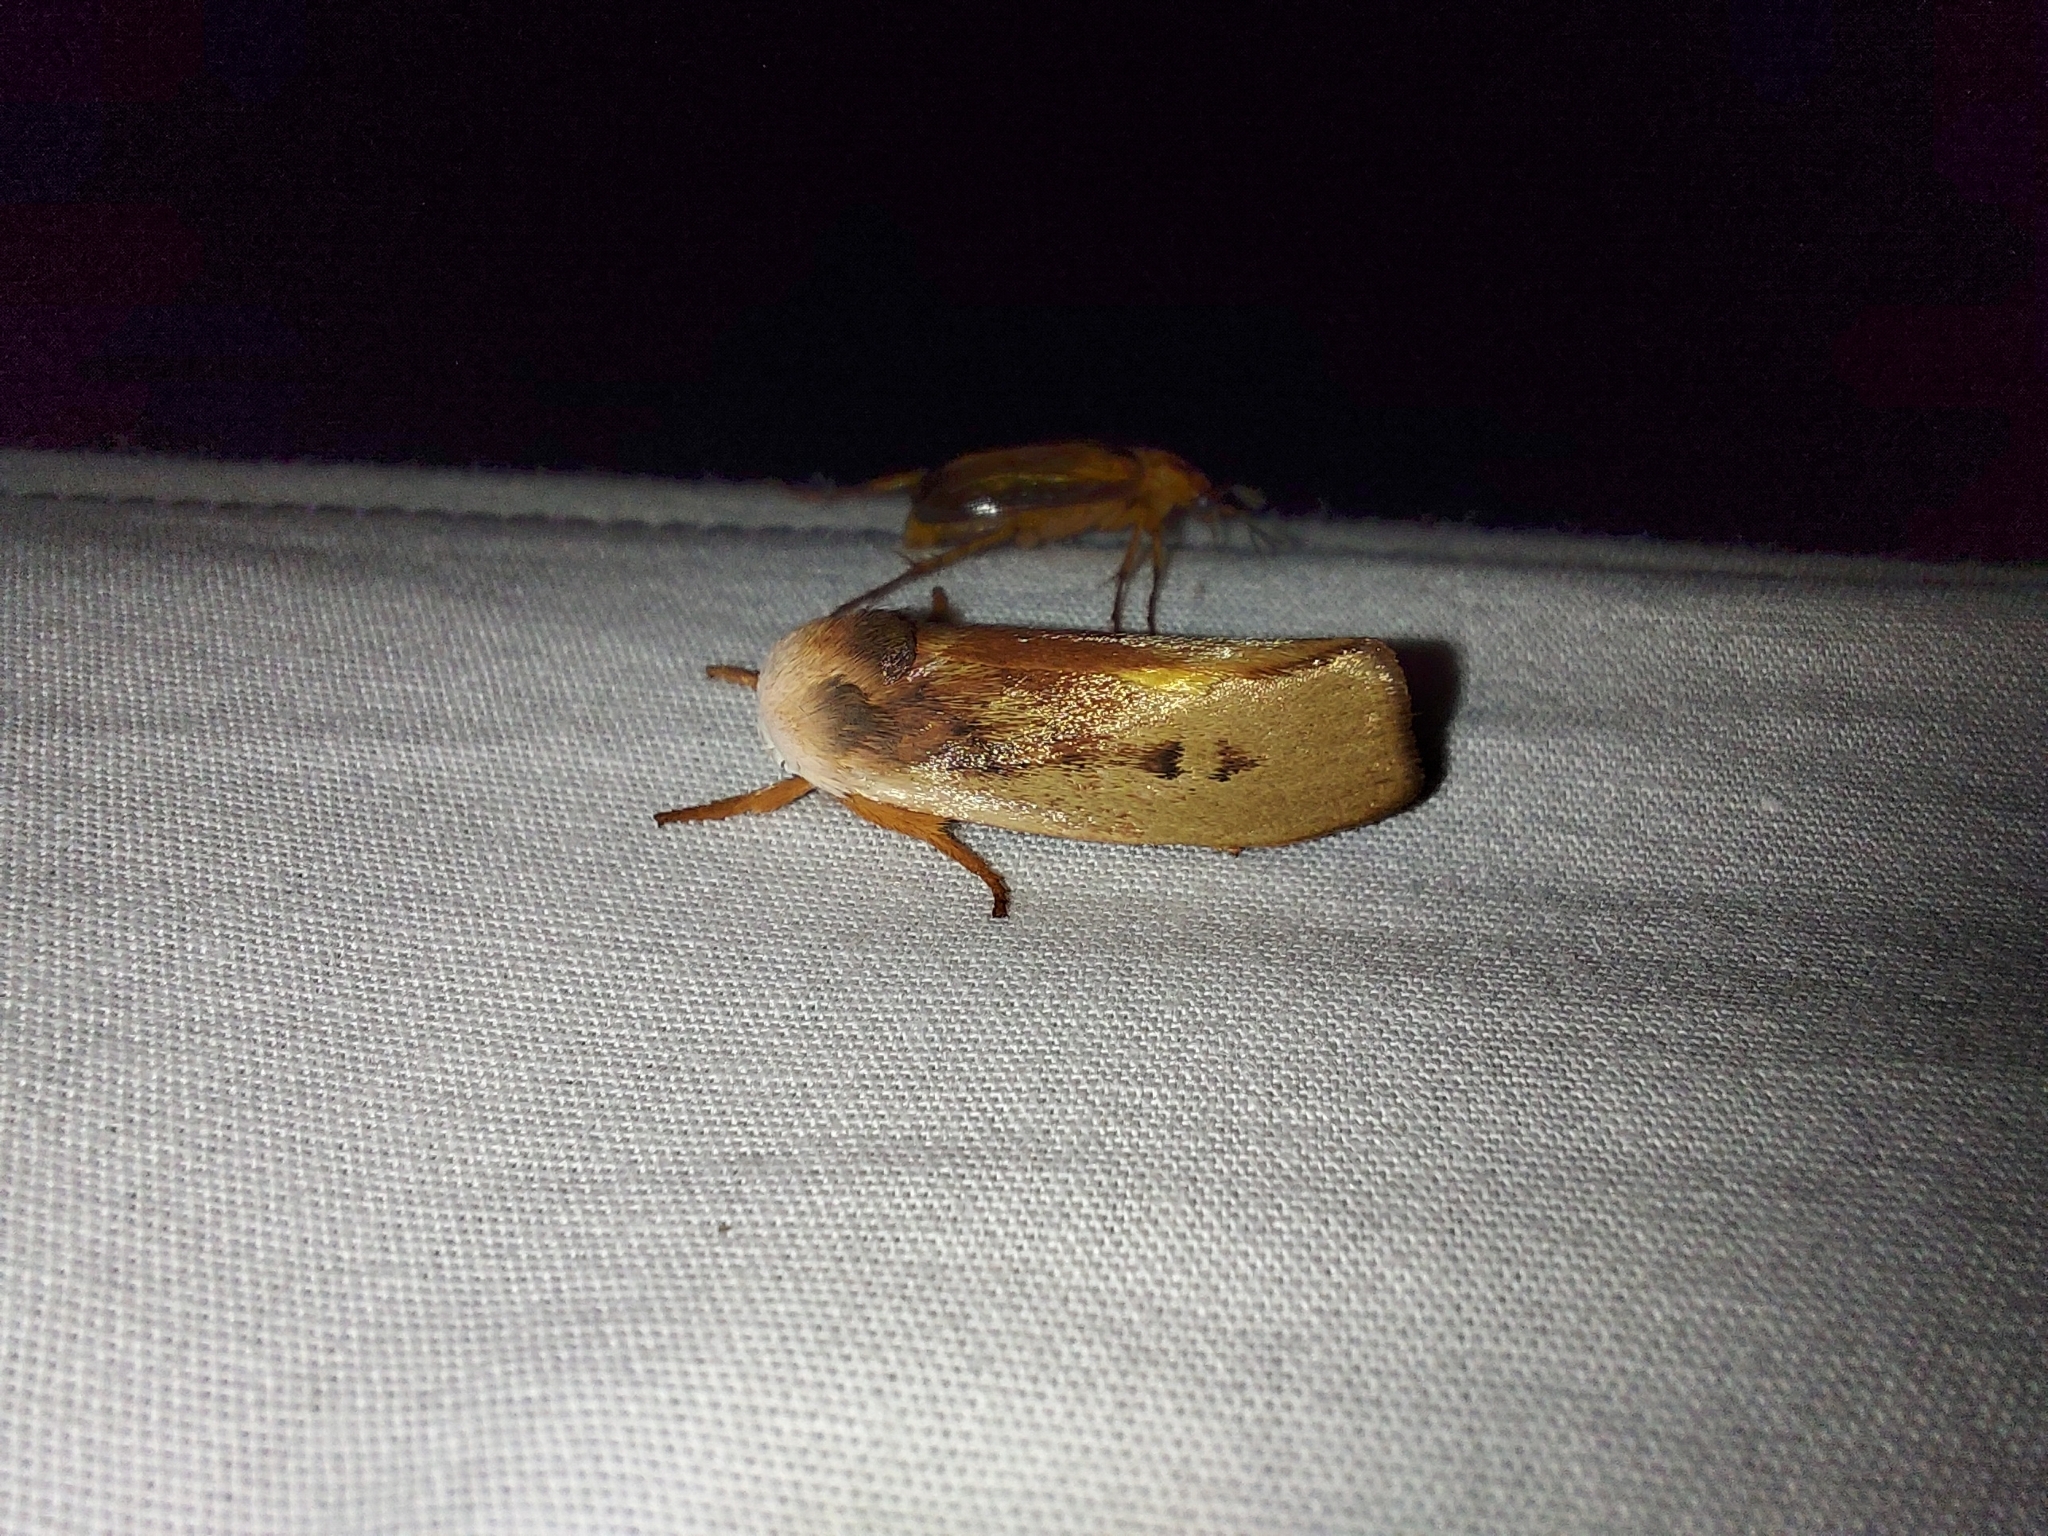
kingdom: Animalia
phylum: Arthropoda
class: Insecta
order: Lepidoptera
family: Xyloryctidae
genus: Cryptophasa
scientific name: Cryptophasa rubescens
